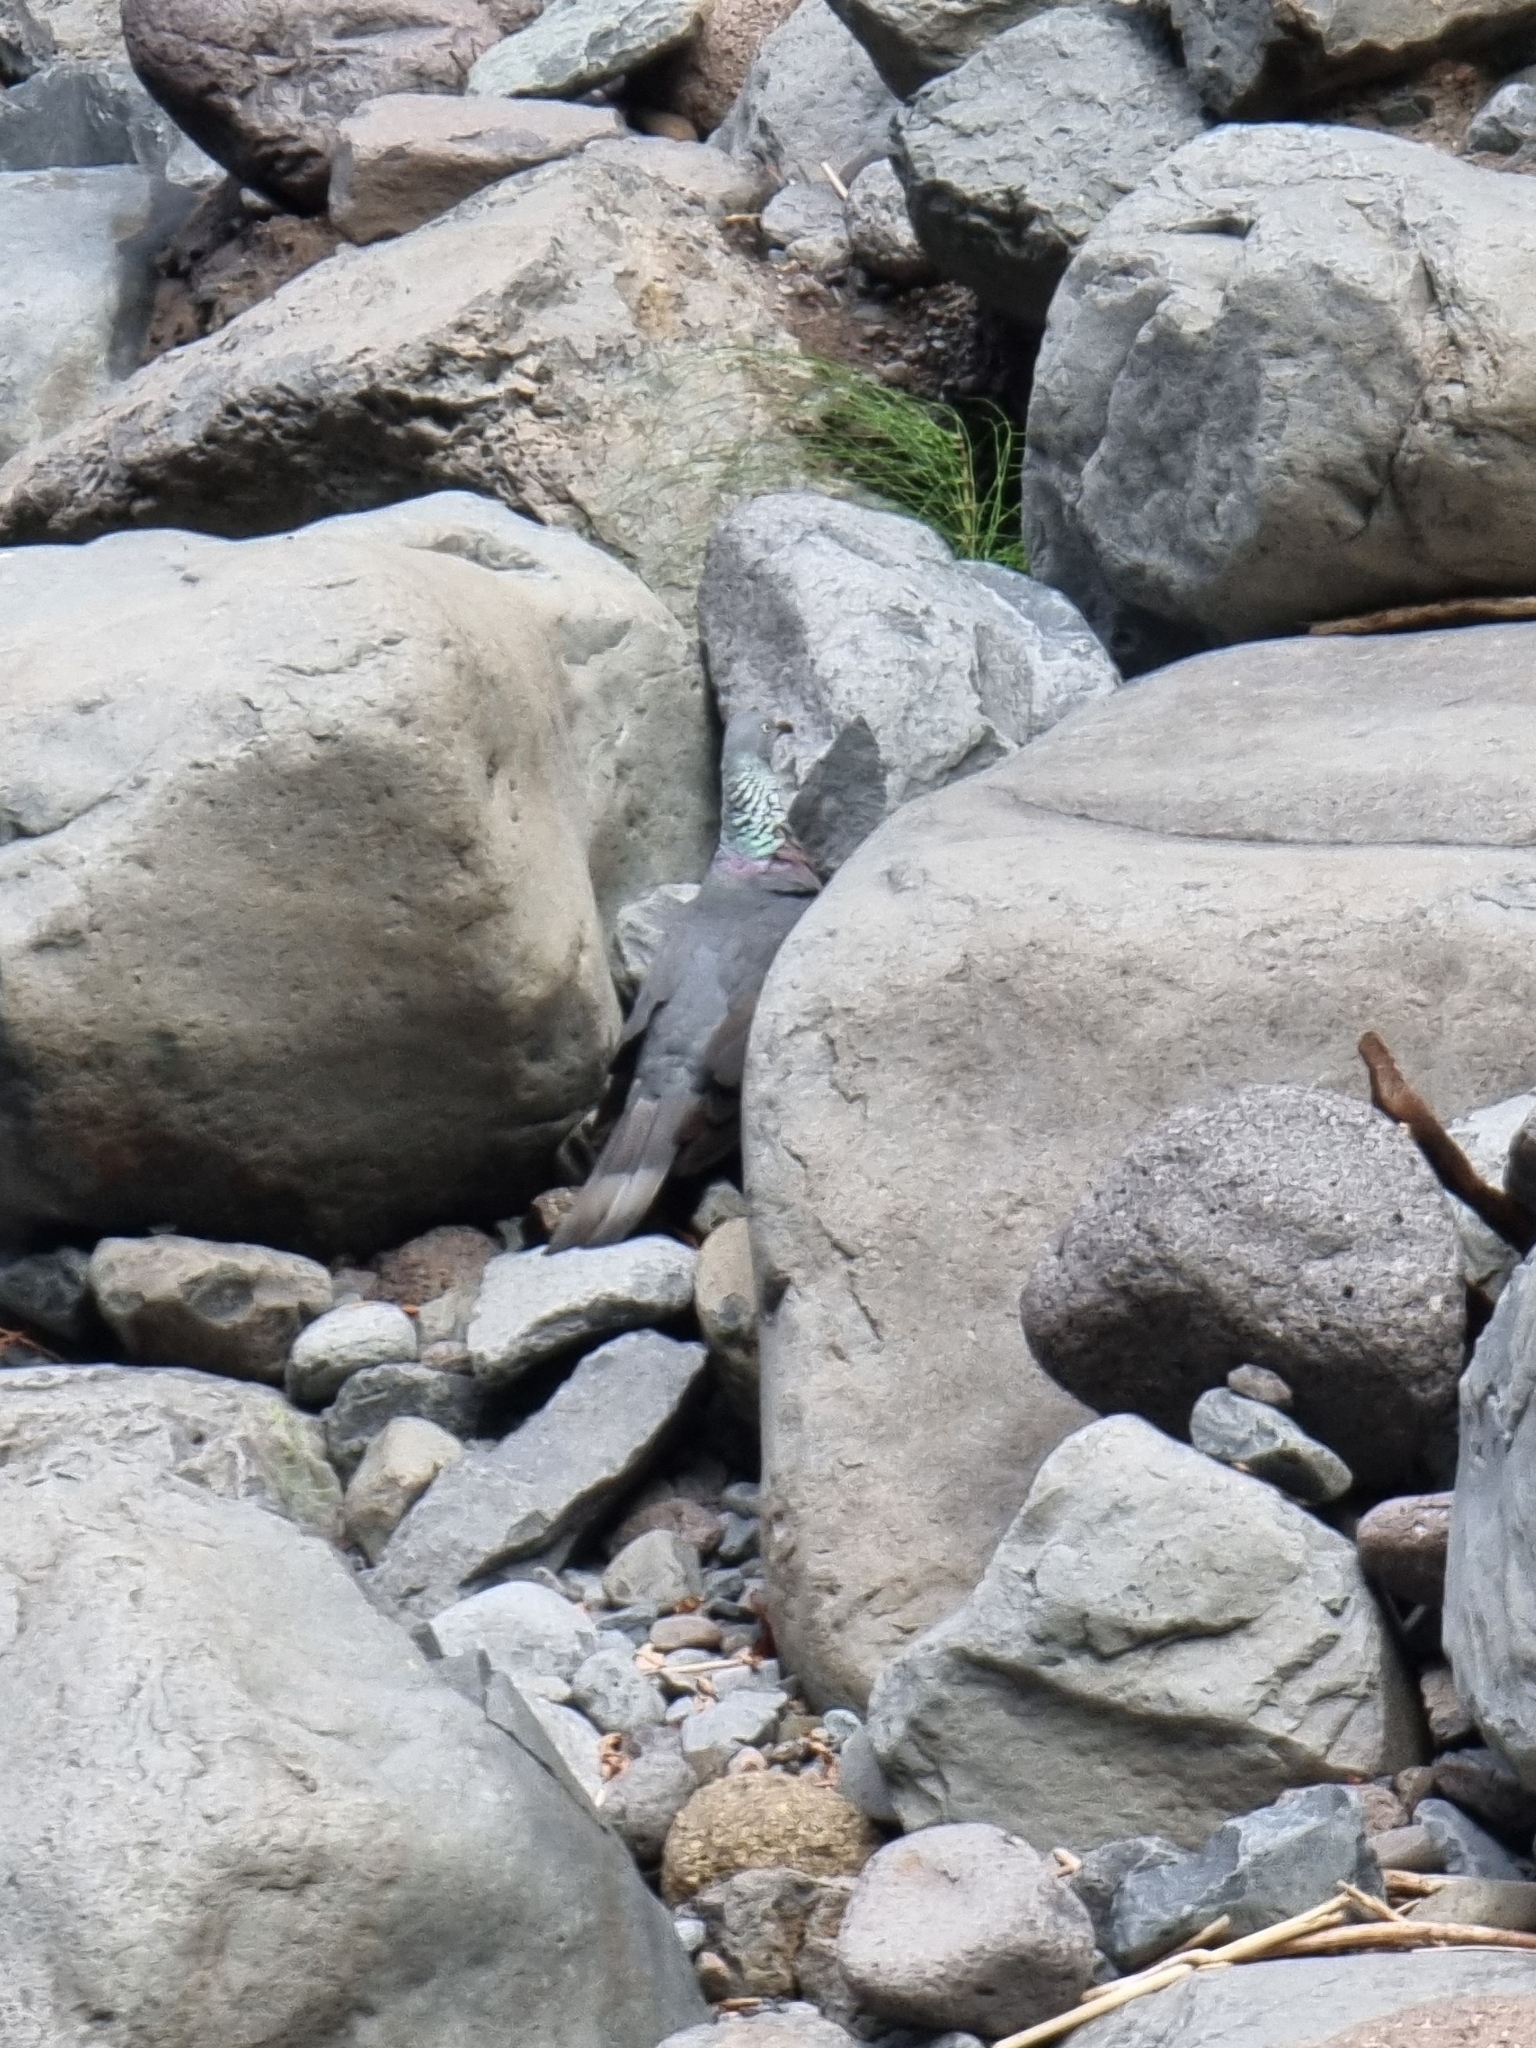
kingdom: Animalia
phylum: Chordata
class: Aves
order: Columbiformes
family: Columbidae
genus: Columba
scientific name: Columba trocaz
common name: Trocaz pigeon
